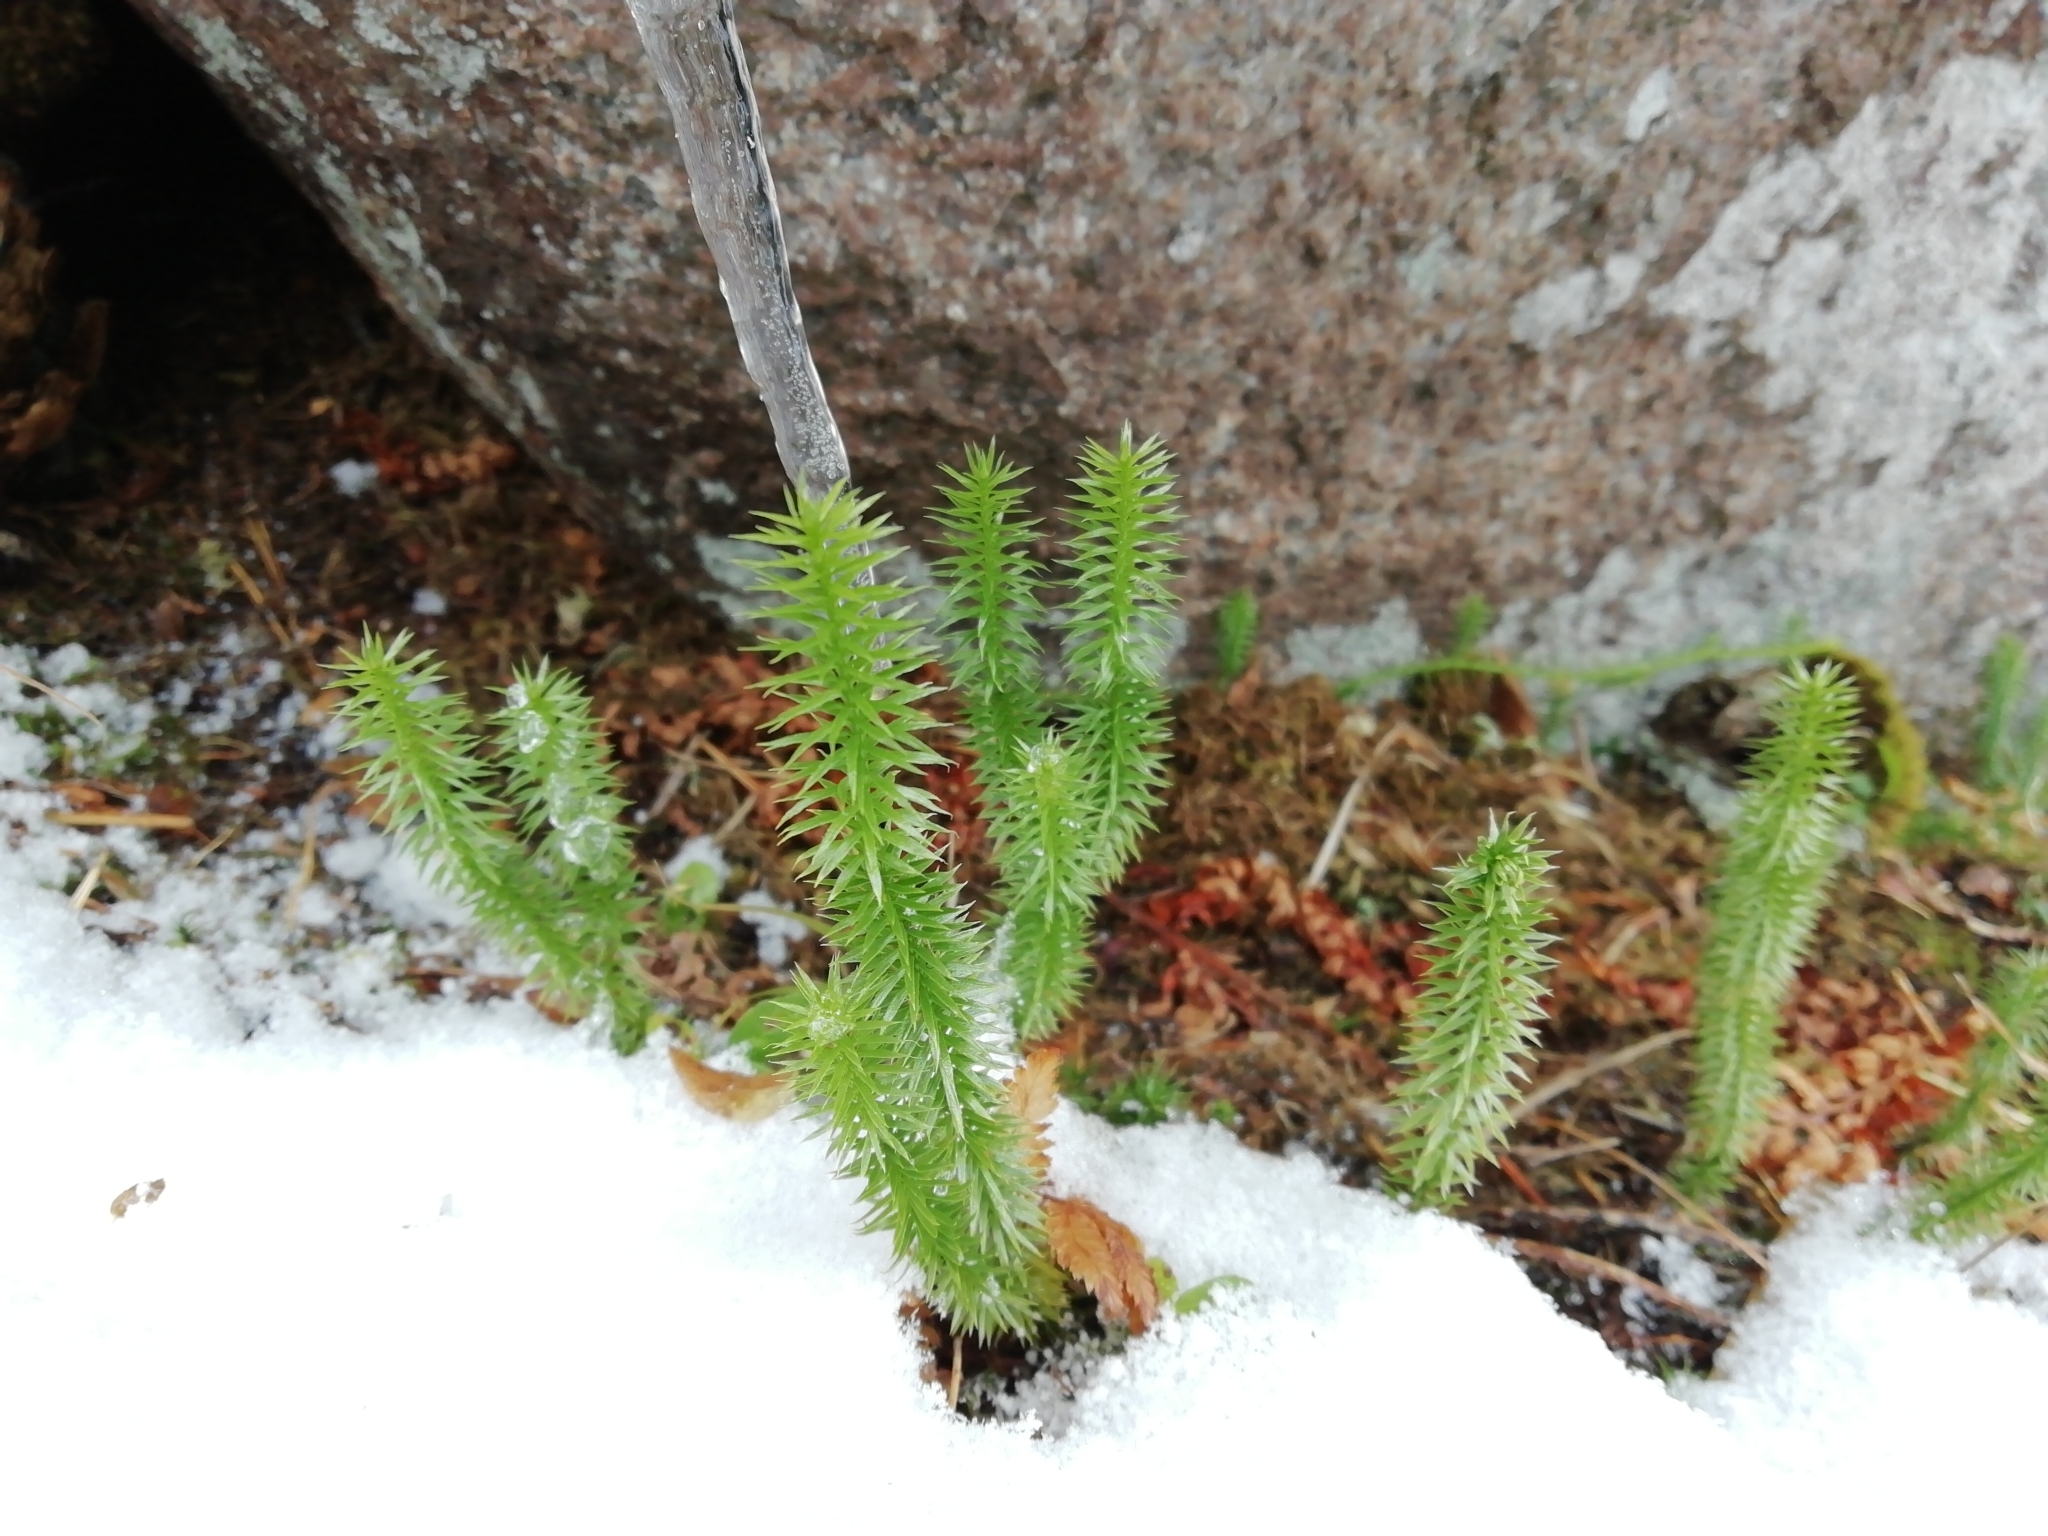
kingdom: Plantae
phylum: Tracheophyta
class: Lycopodiopsida
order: Lycopodiales
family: Lycopodiaceae
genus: Spinulum
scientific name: Spinulum annotinum
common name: Interrupted club-moss
